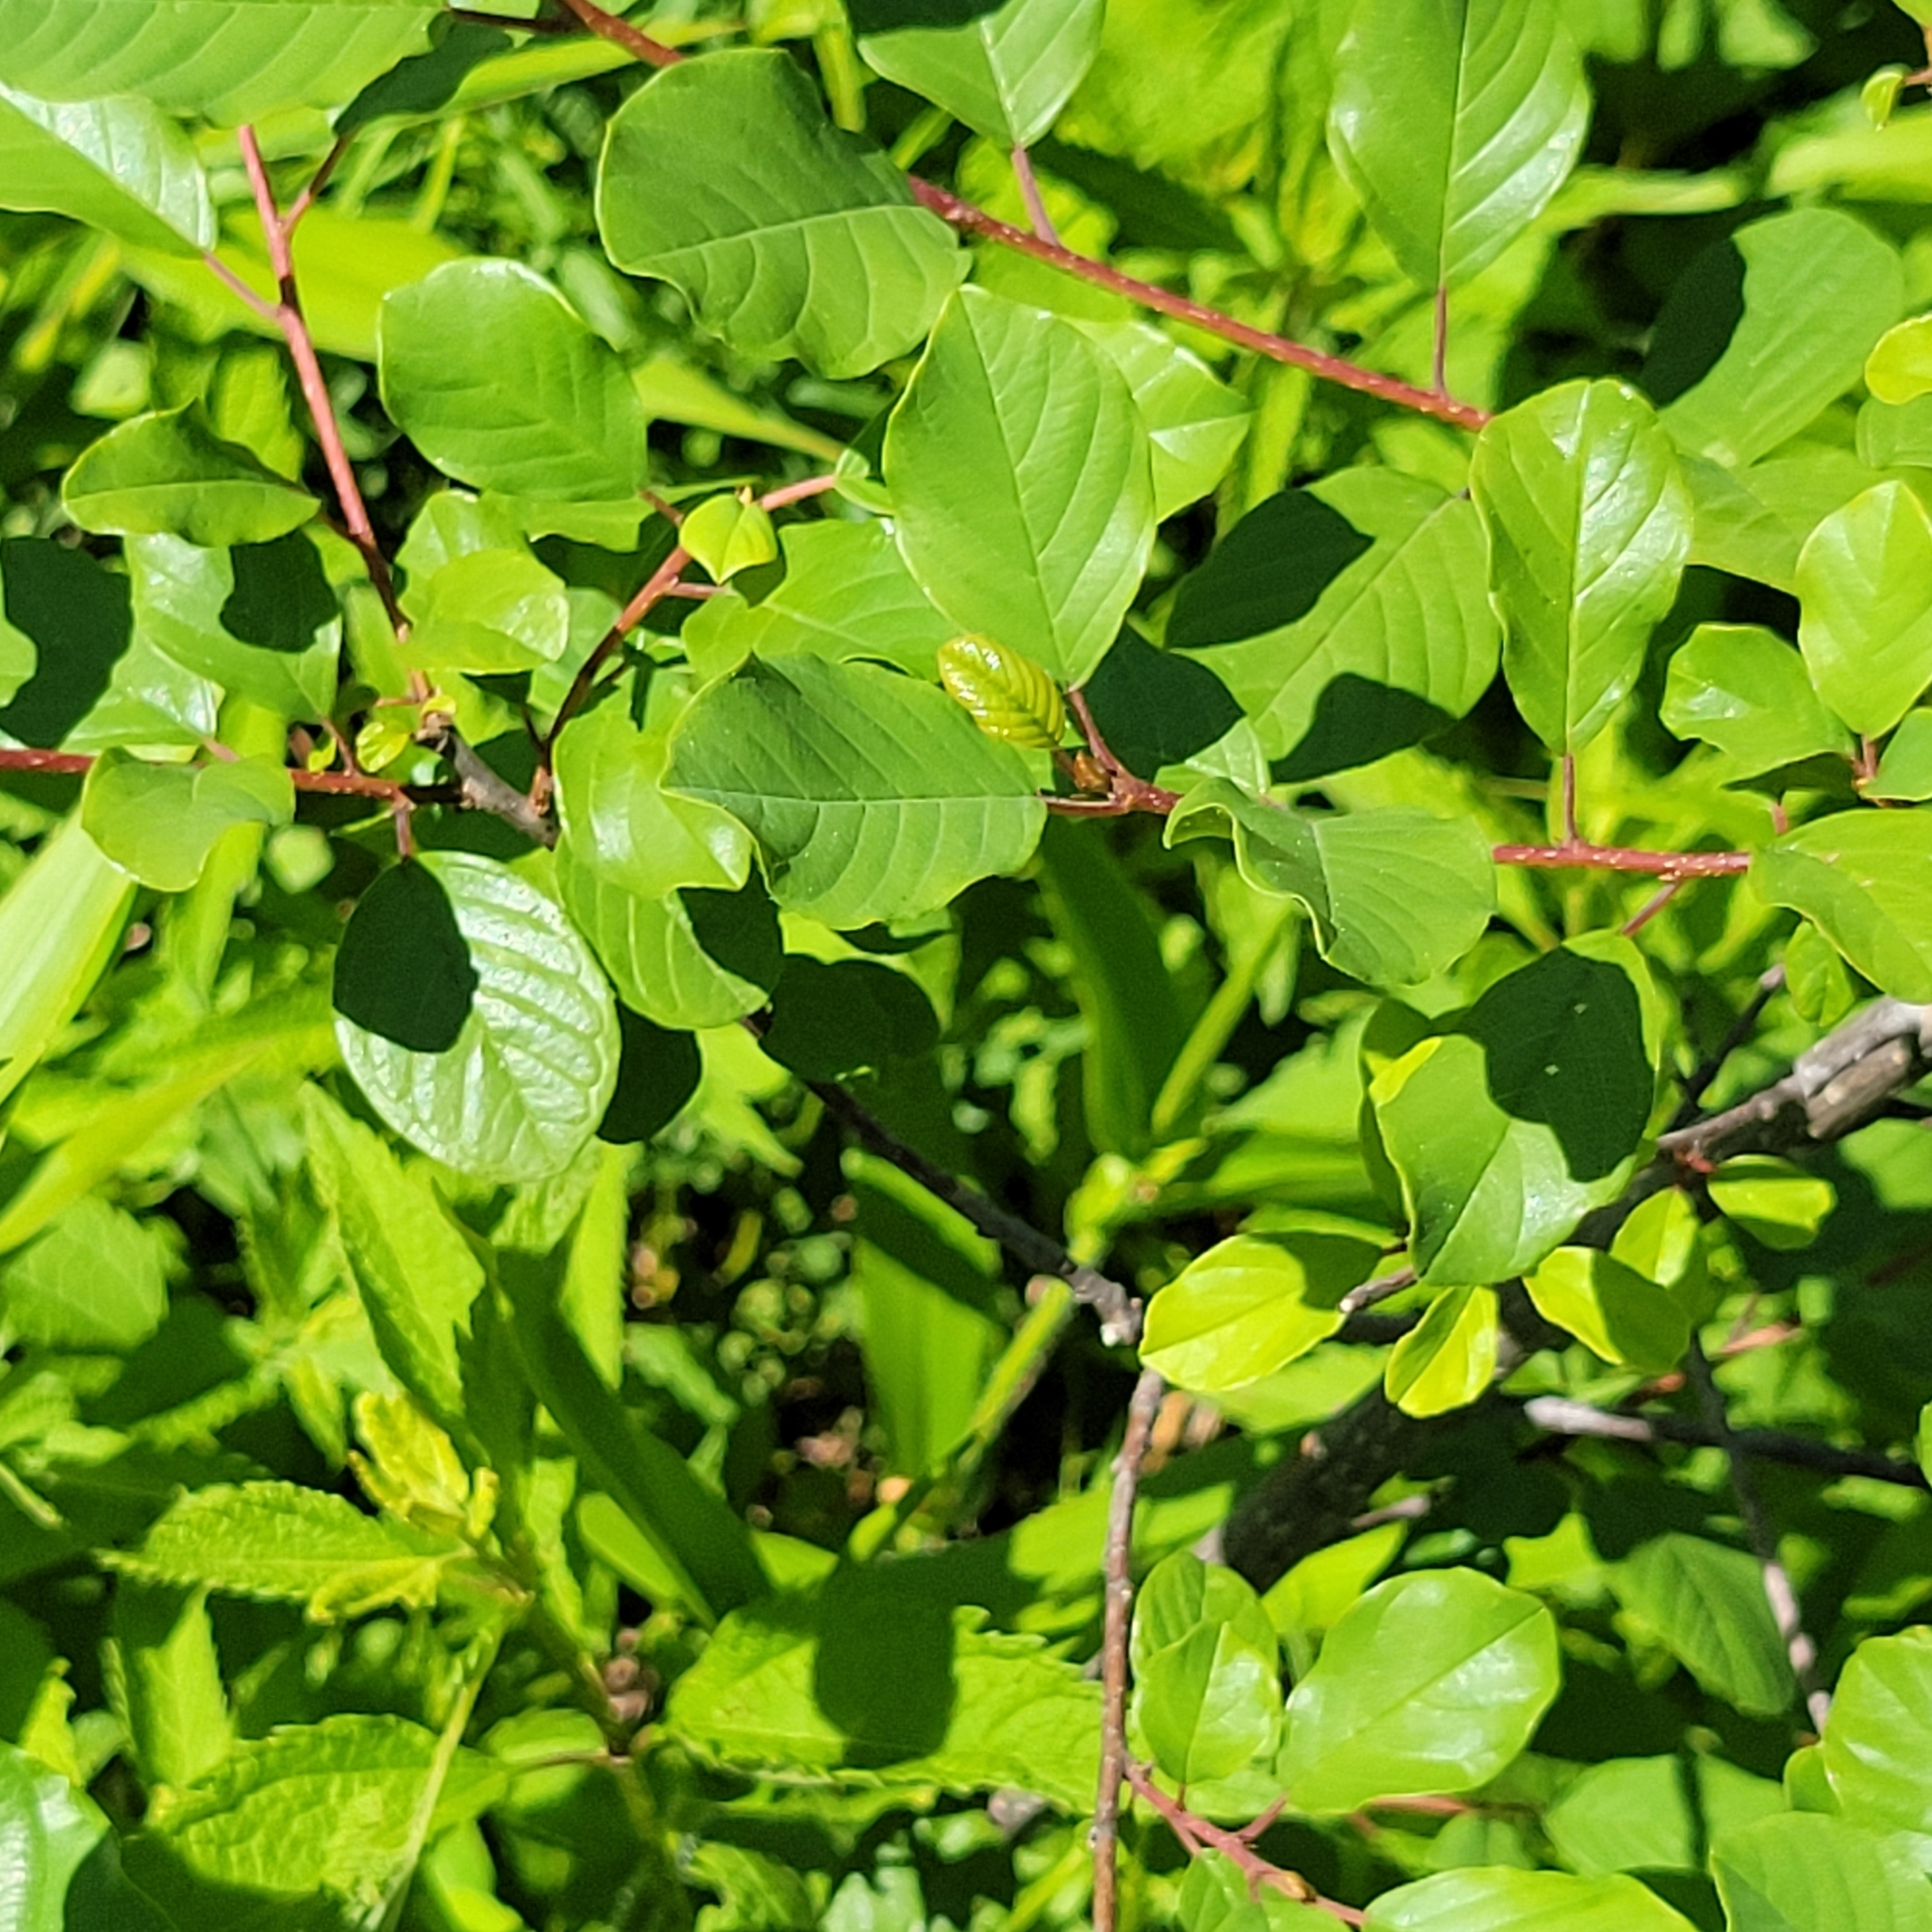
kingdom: Plantae
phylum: Tracheophyta
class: Magnoliopsida
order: Rosales
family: Rhamnaceae
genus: Frangula
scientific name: Frangula alnus
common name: Alder buckthorn
